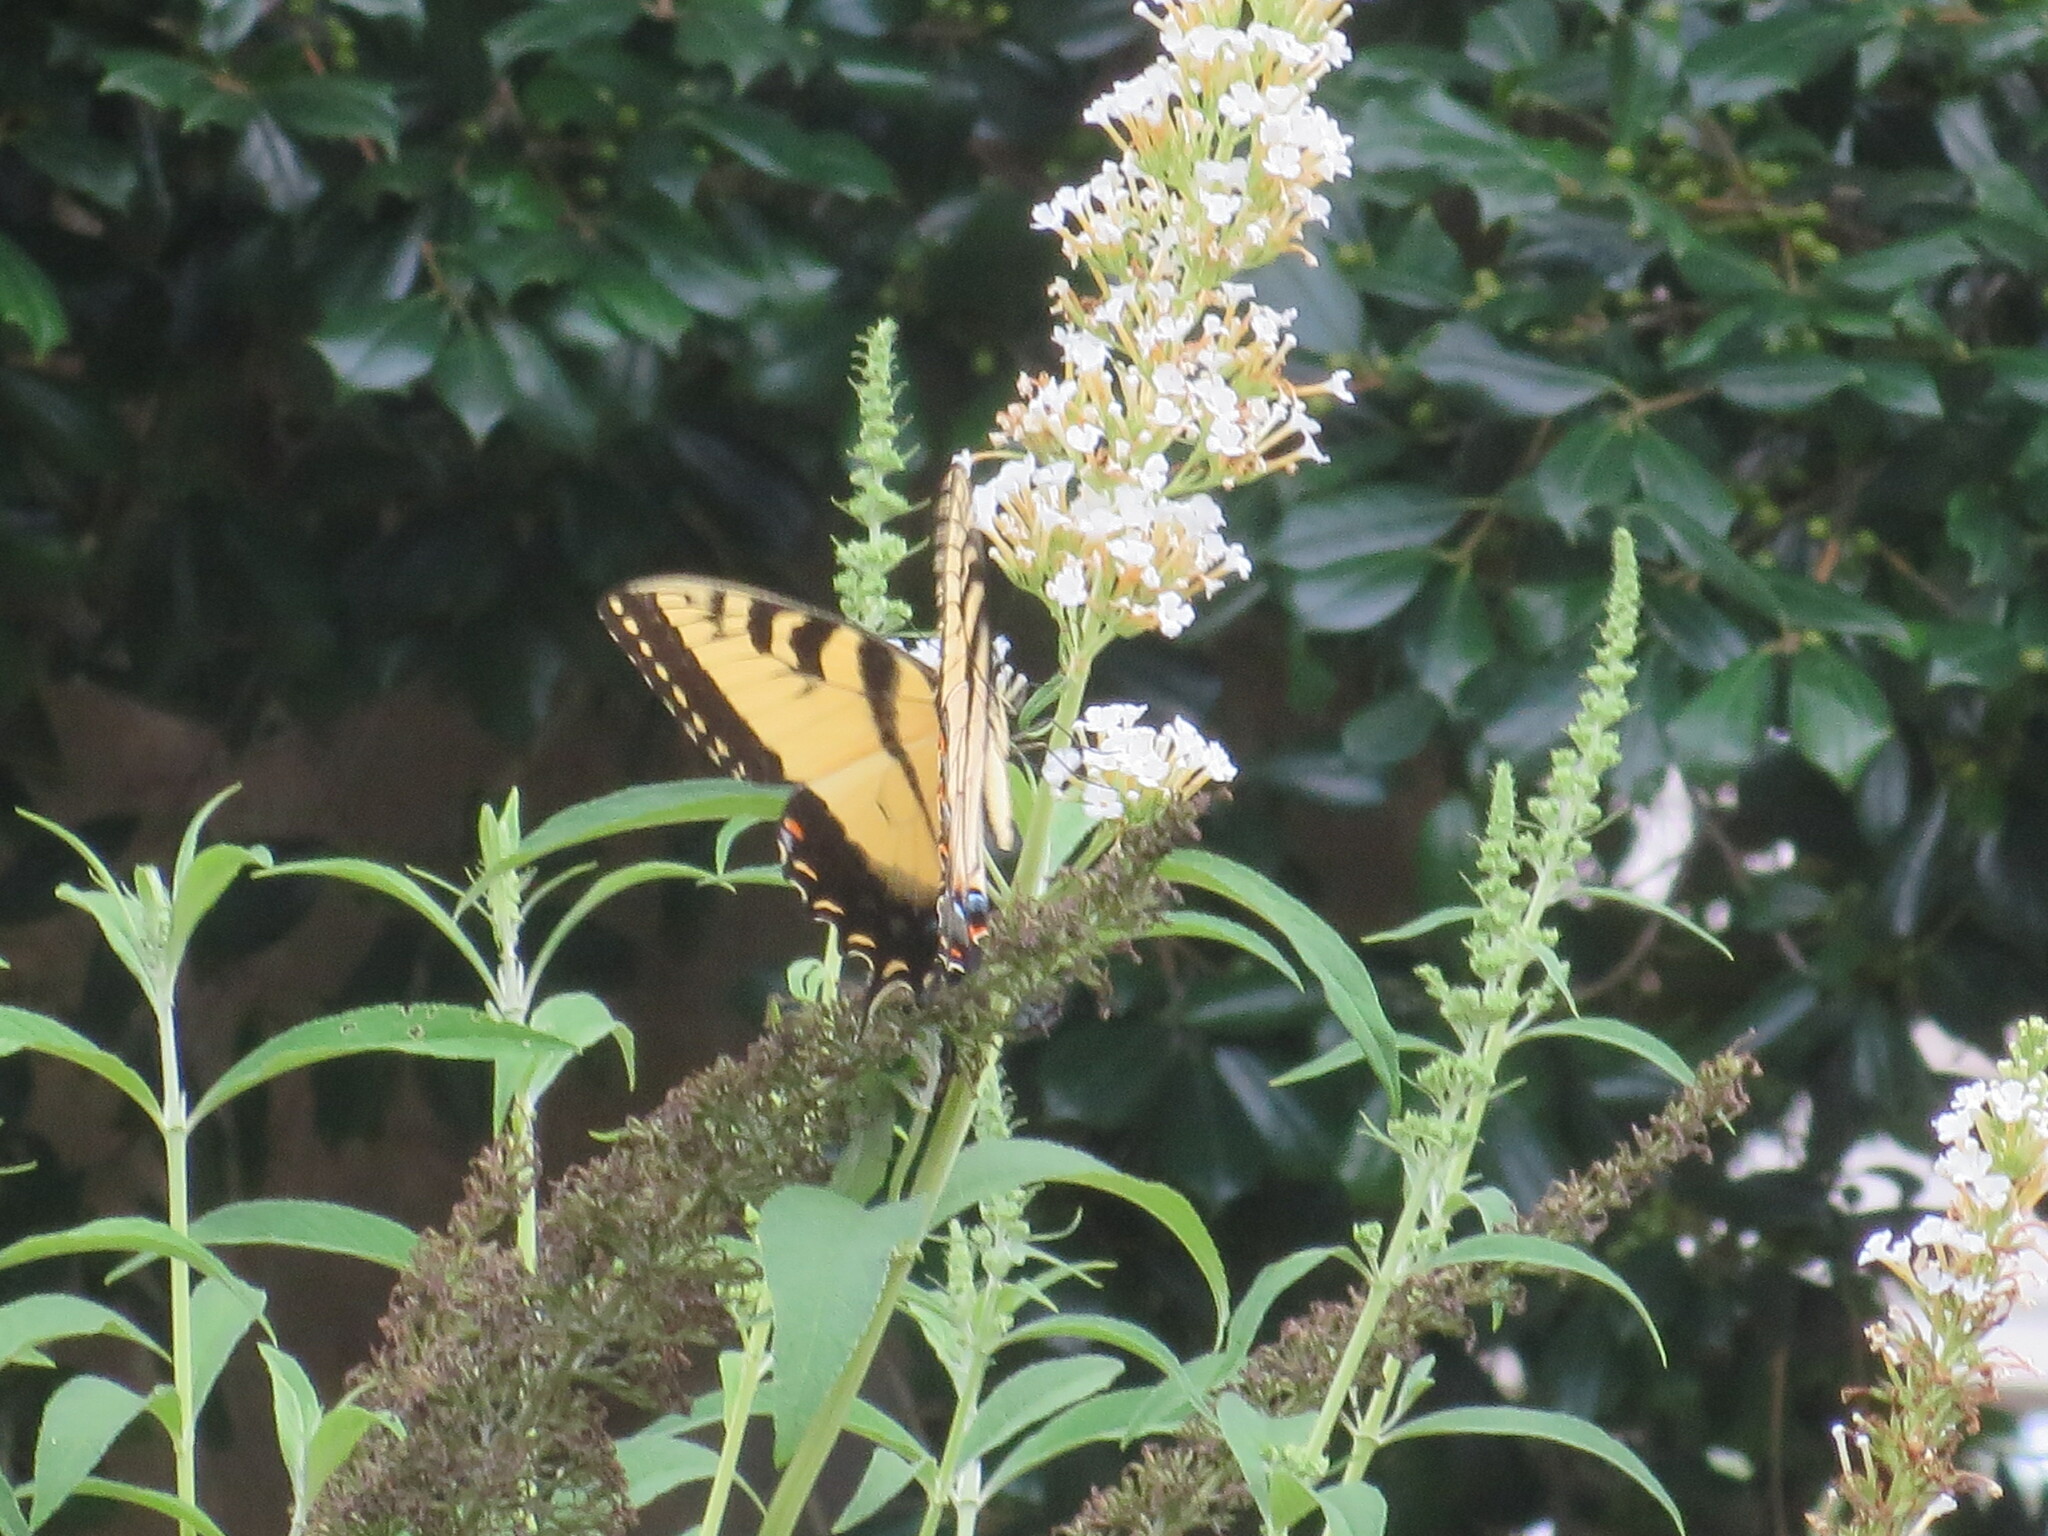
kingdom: Animalia
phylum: Arthropoda
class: Insecta
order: Lepidoptera
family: Papilionidae
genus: Papilio
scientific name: Papilio glaucus
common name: Tiger swallowtail
